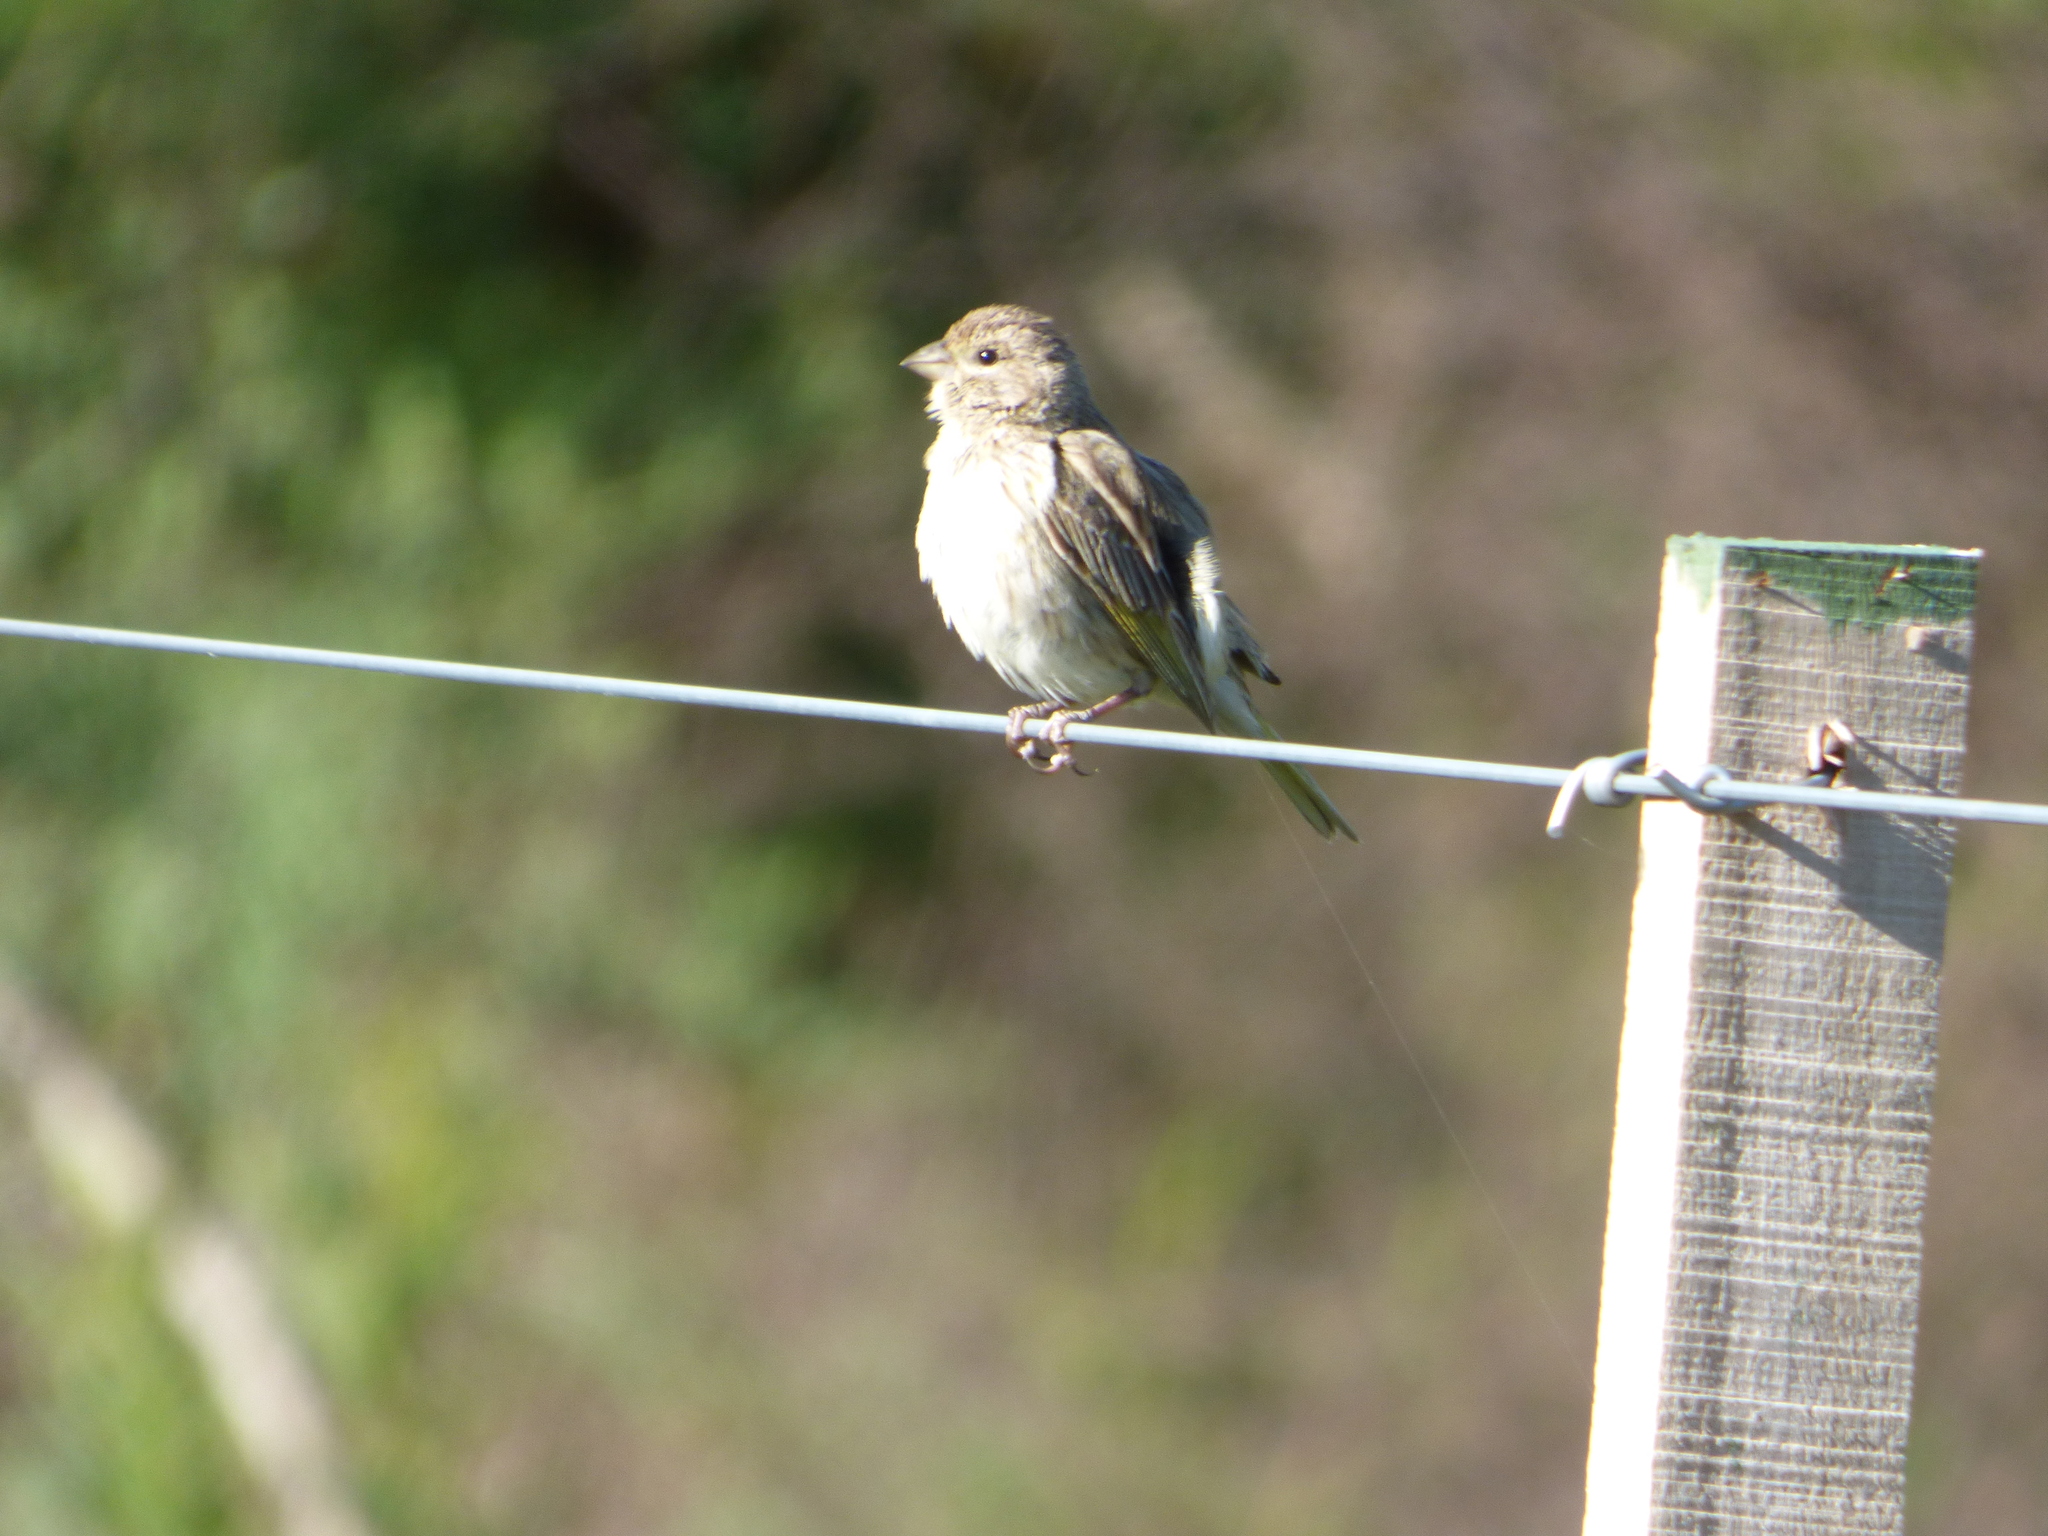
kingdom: Animalia
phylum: Chordata
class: Aves
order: Passeriformes
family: Thraupidae
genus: Sicalis
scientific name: Sicalis flaveola
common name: Saffron finch
